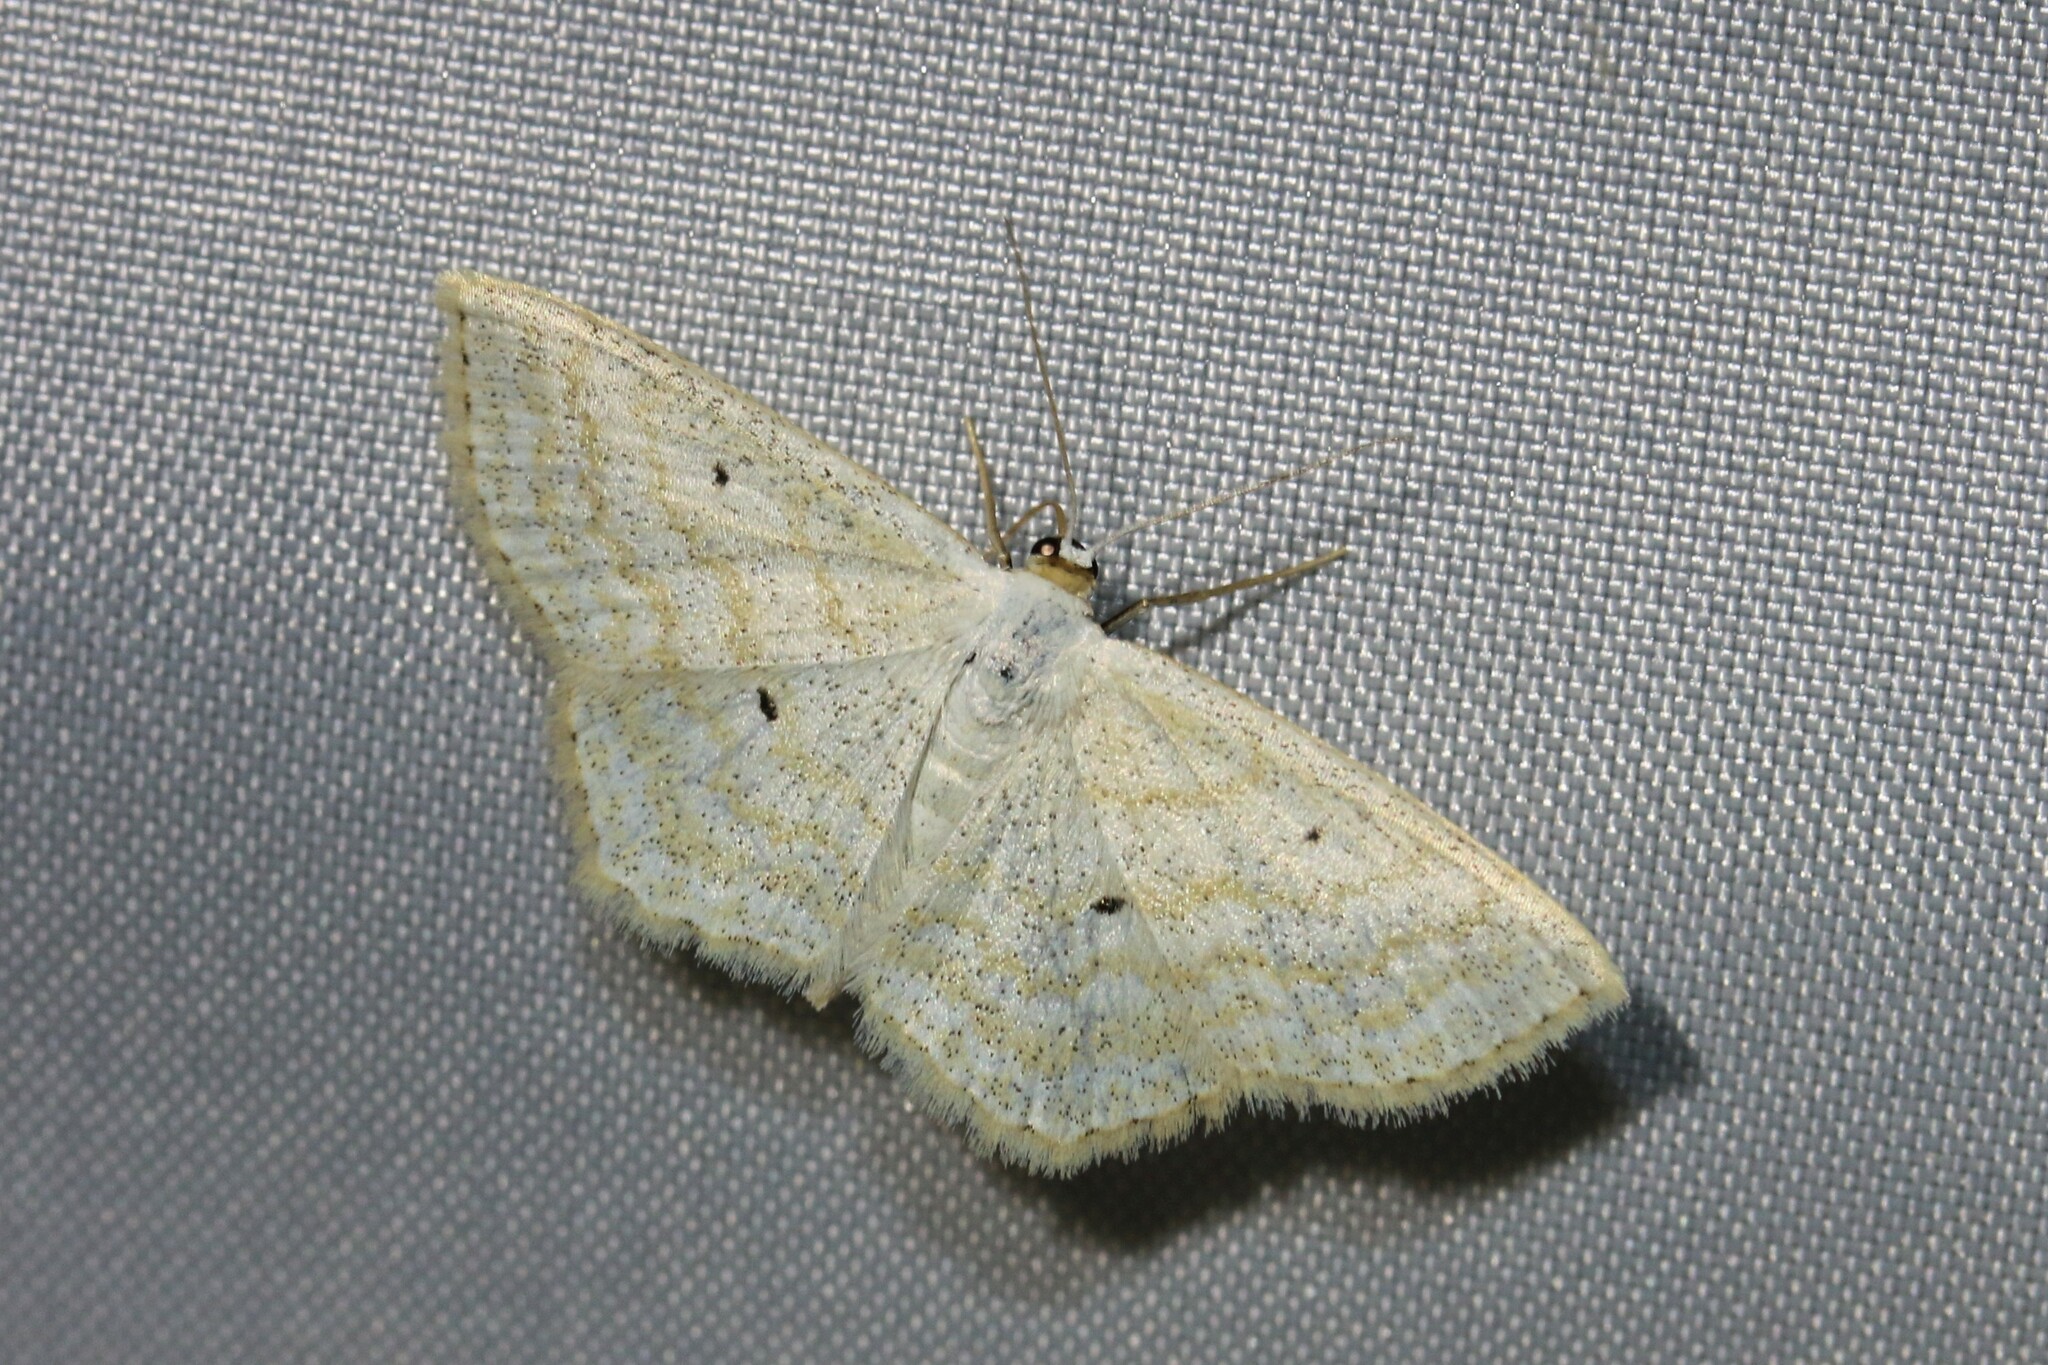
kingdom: Animalia
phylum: Arthropoda
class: Insecta
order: Lepidoptera
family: Geometridae
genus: Scopula
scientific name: Scopula immutata
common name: Lesser cream wave
